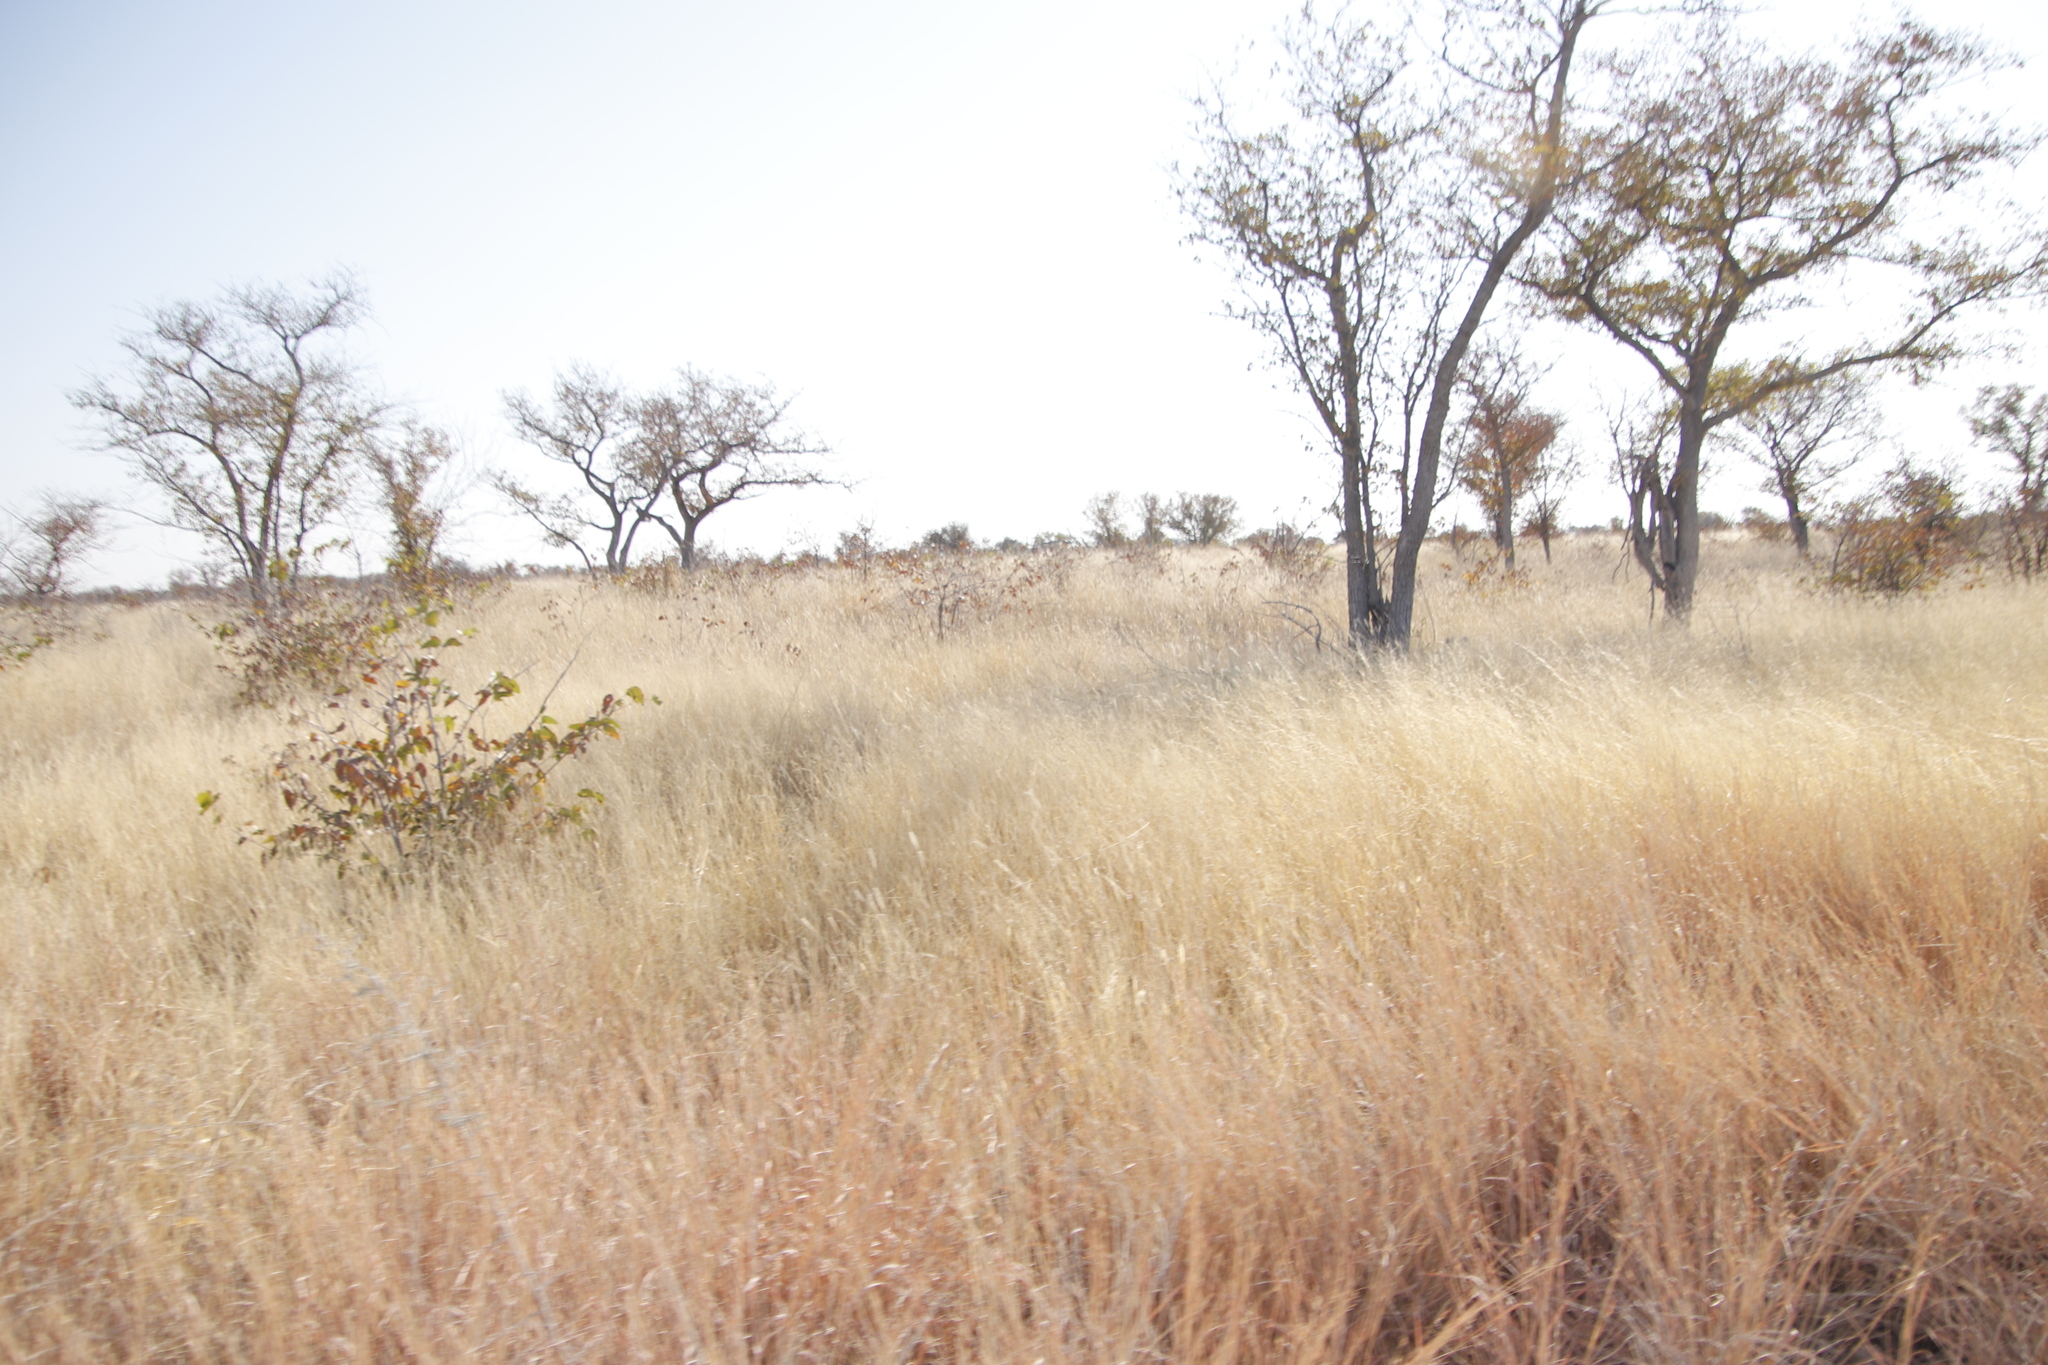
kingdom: Plantae
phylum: Tracheophyta
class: Magnoliopsida
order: Fabales
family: Fabaceae
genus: Colophospermum
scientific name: Colophospermum mopane
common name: Mopane
